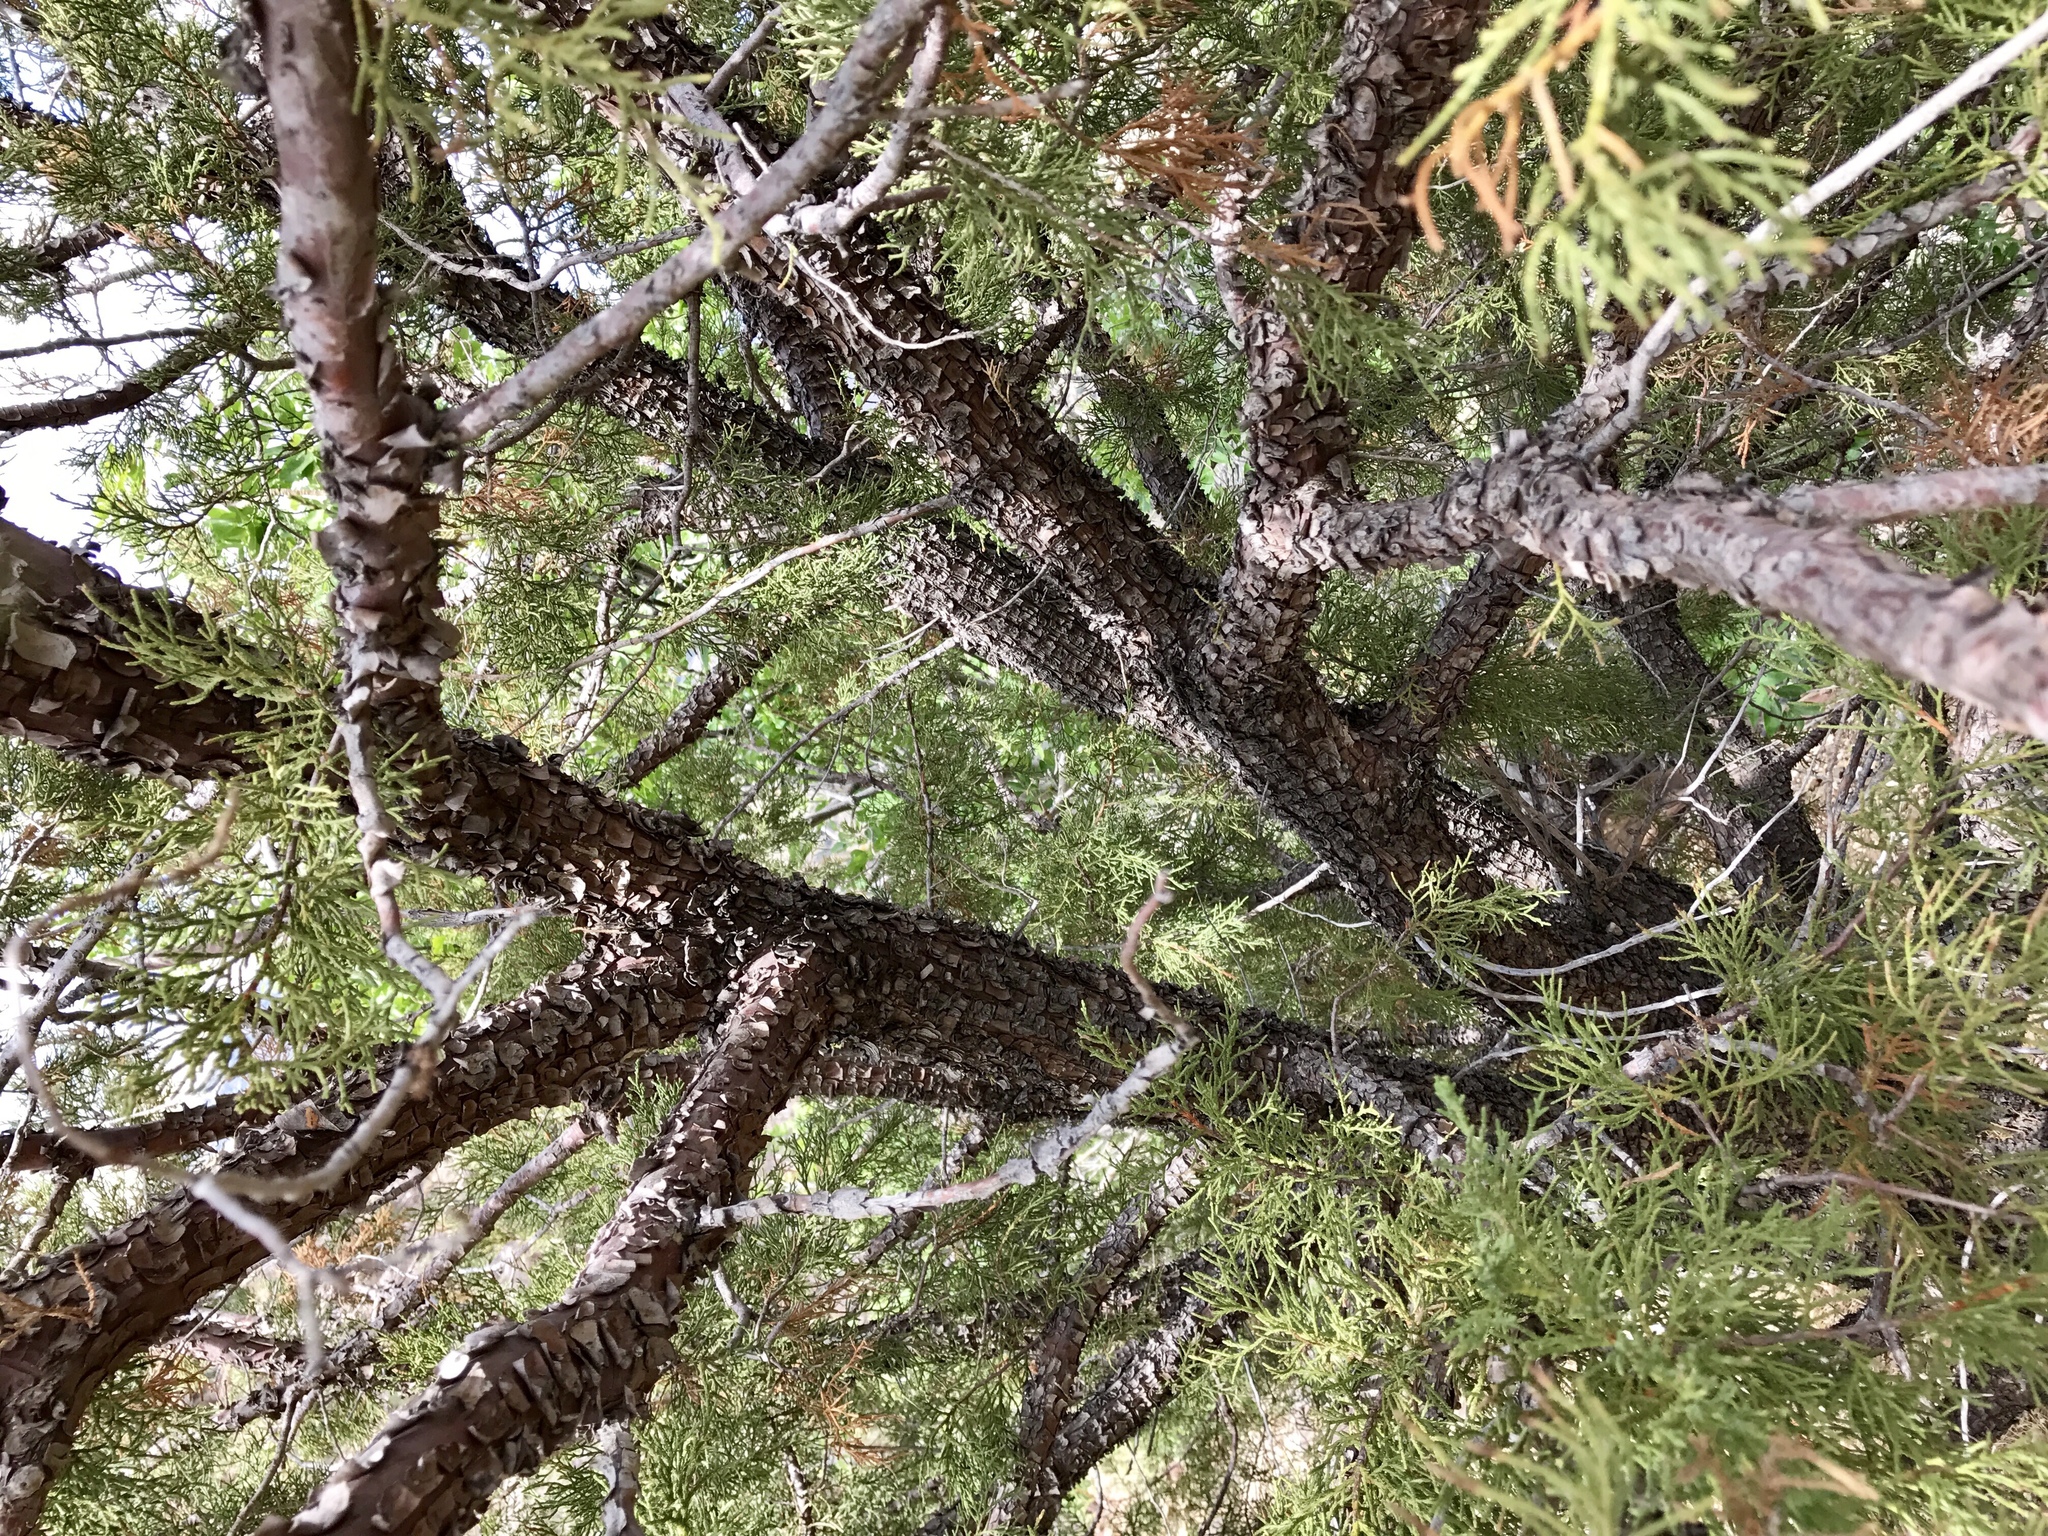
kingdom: Plantae
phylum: Tracheophyta
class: Pinopsida
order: Pinales
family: Cupressaceae
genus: Juniperus
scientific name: Juniperus deppeana
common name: Alligator juniper
